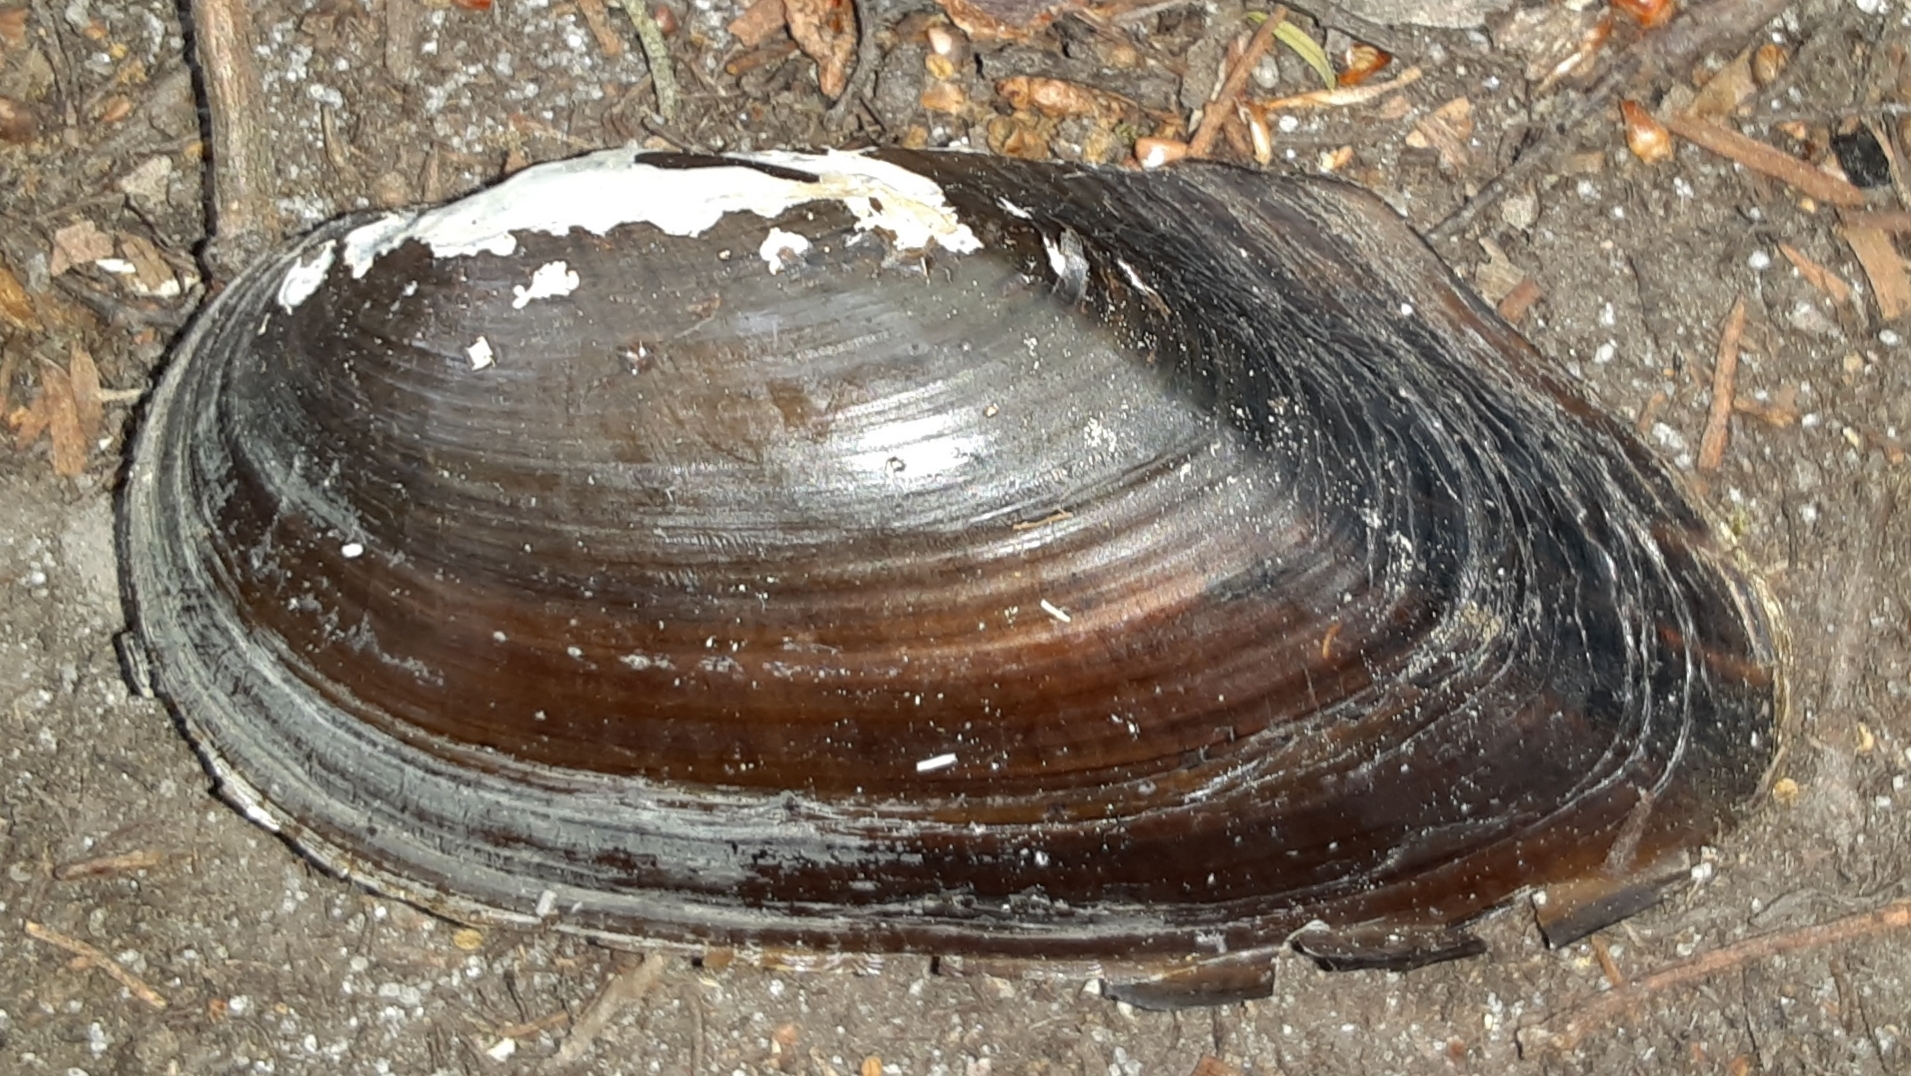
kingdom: Animalia
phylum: Mollusca
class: Bivalvia
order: Unionida
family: Unionidae
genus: Elliptio
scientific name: Elliptio jayensis
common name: Florida spike
